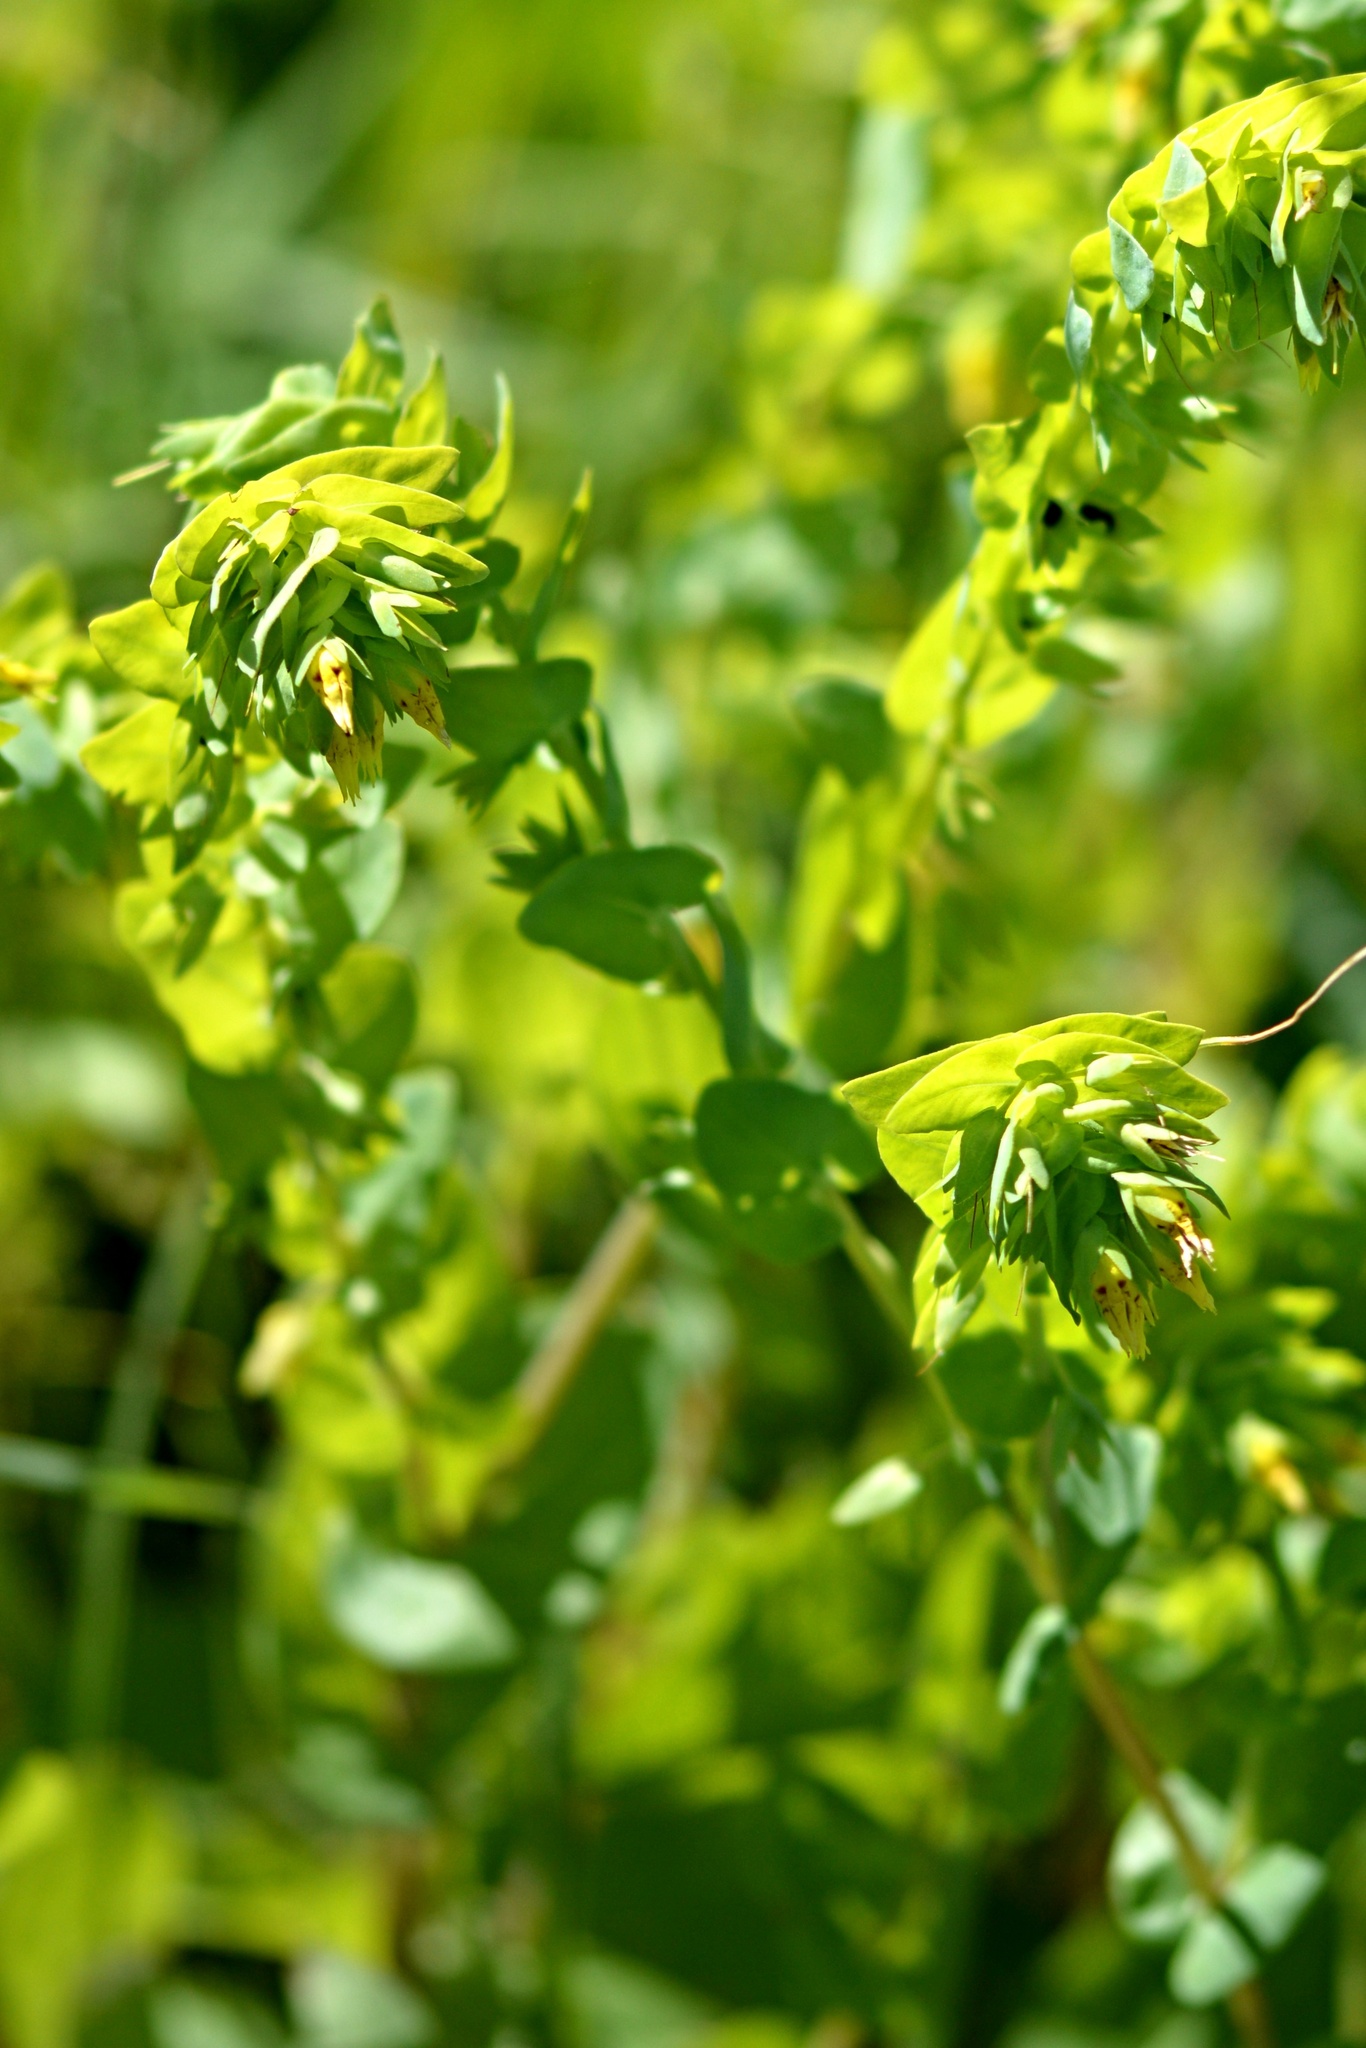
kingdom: Plantae
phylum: Tracheophyta
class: Magnoliopsida
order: Boraginales
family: Boraginaceae
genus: Cerinthe
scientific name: Cerinthe minor
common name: Lesser honeywort
